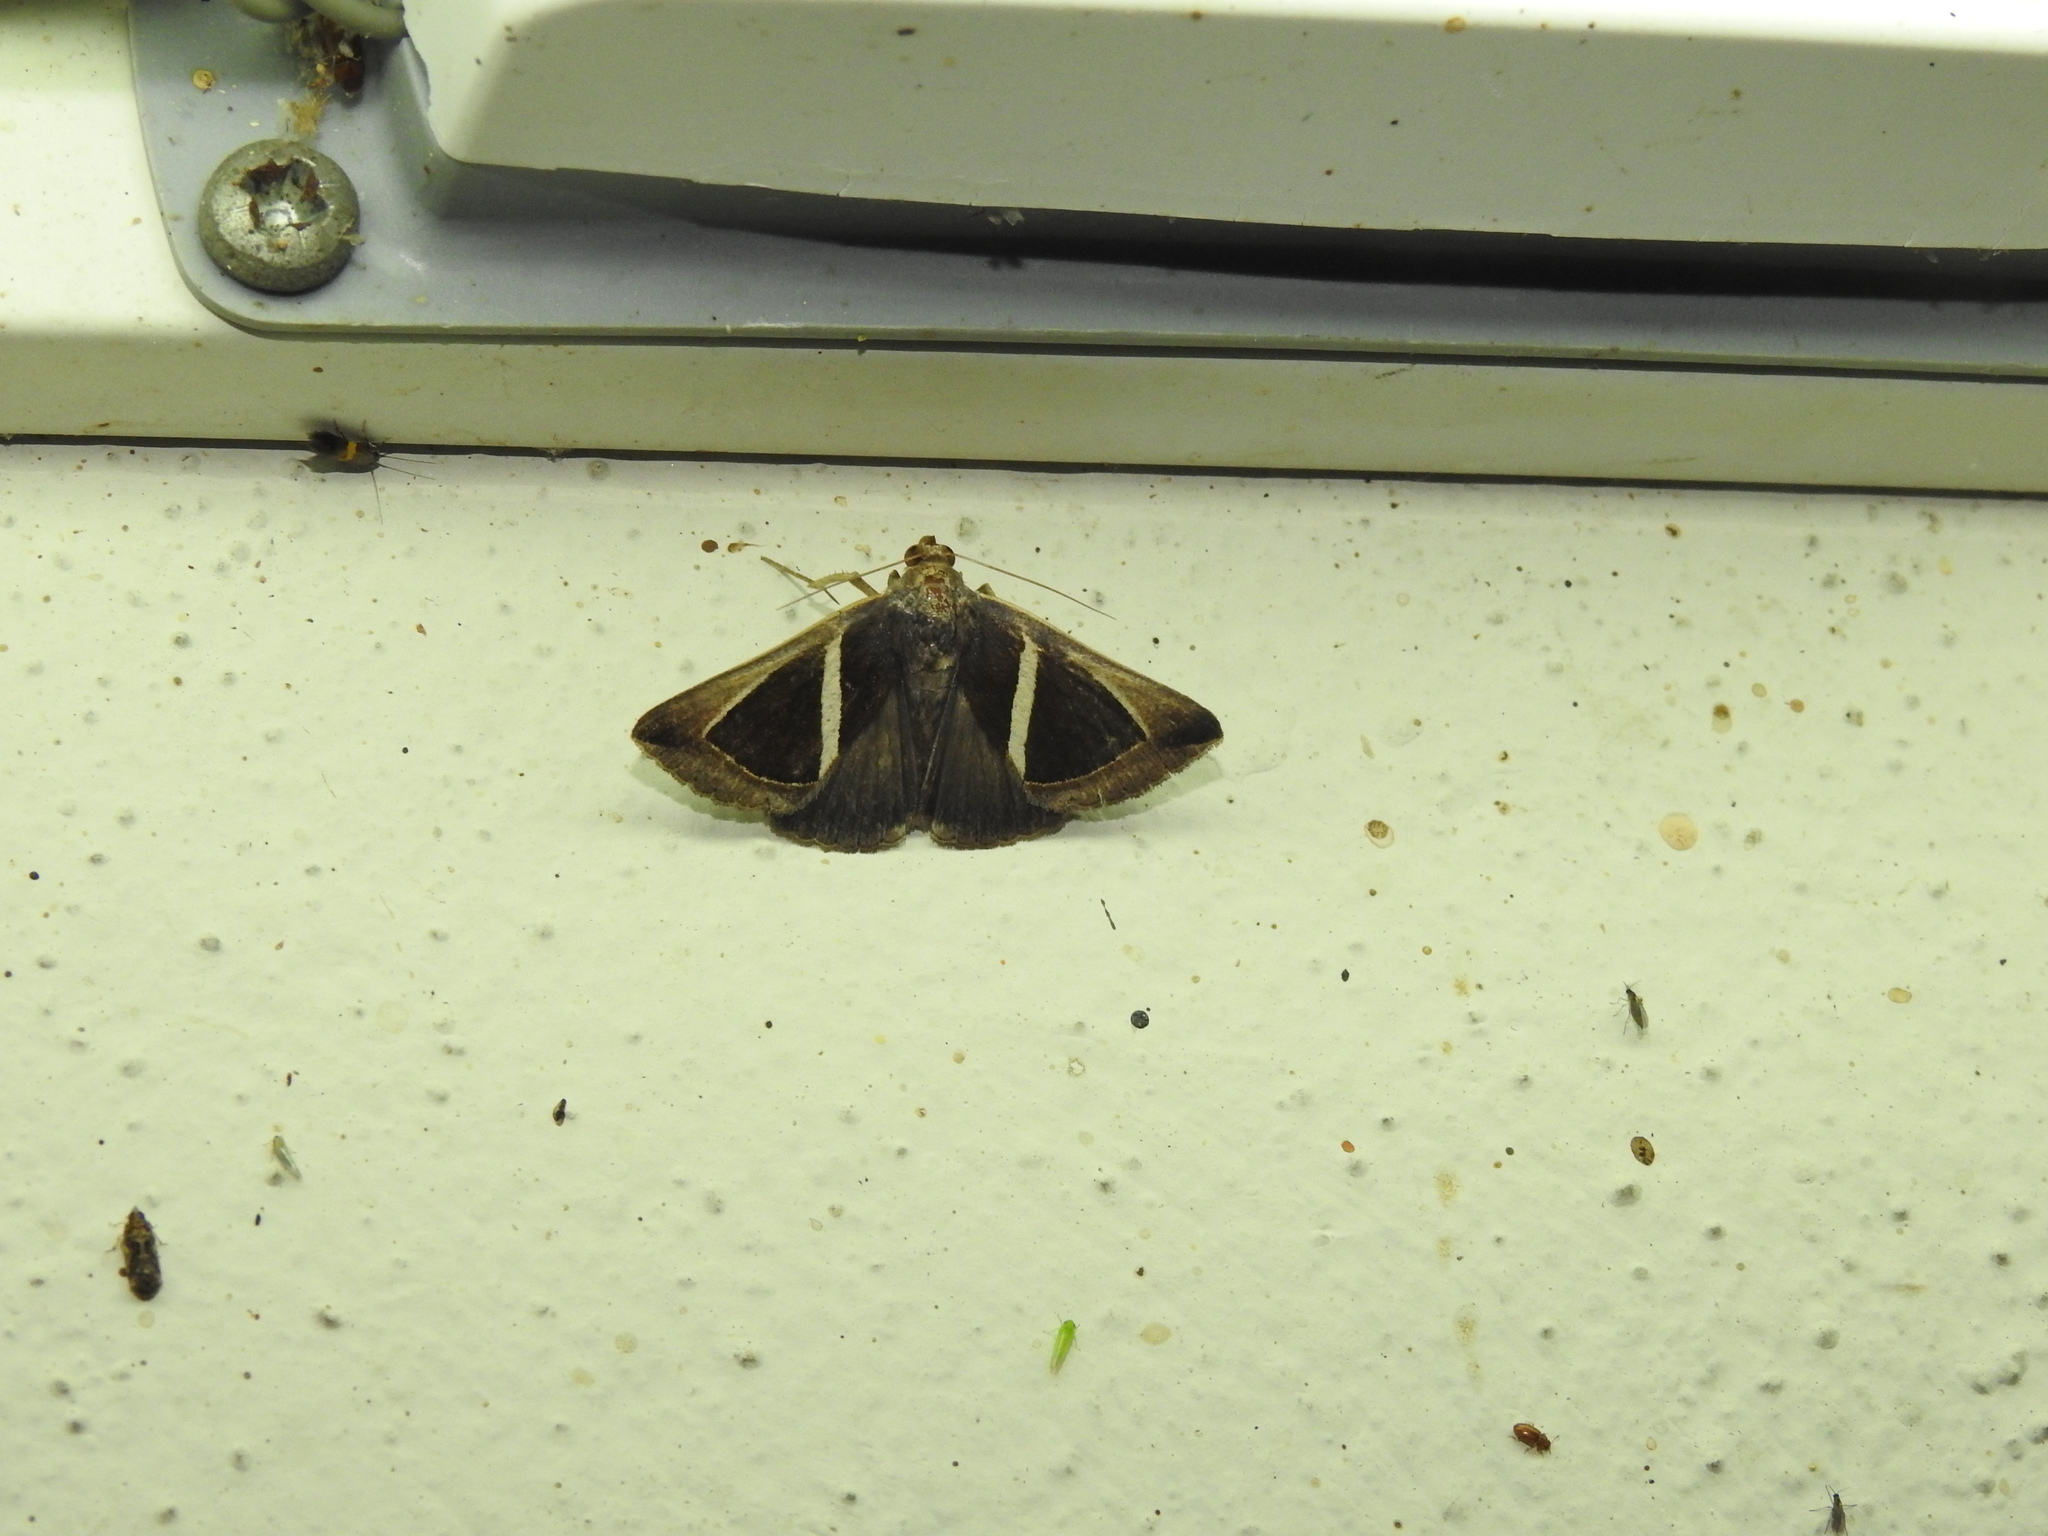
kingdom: Animalia
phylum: Arthropoda
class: Insecta
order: Lepidoptera
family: Erebidae
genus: Chalciope
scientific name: Chalciope mygdon
